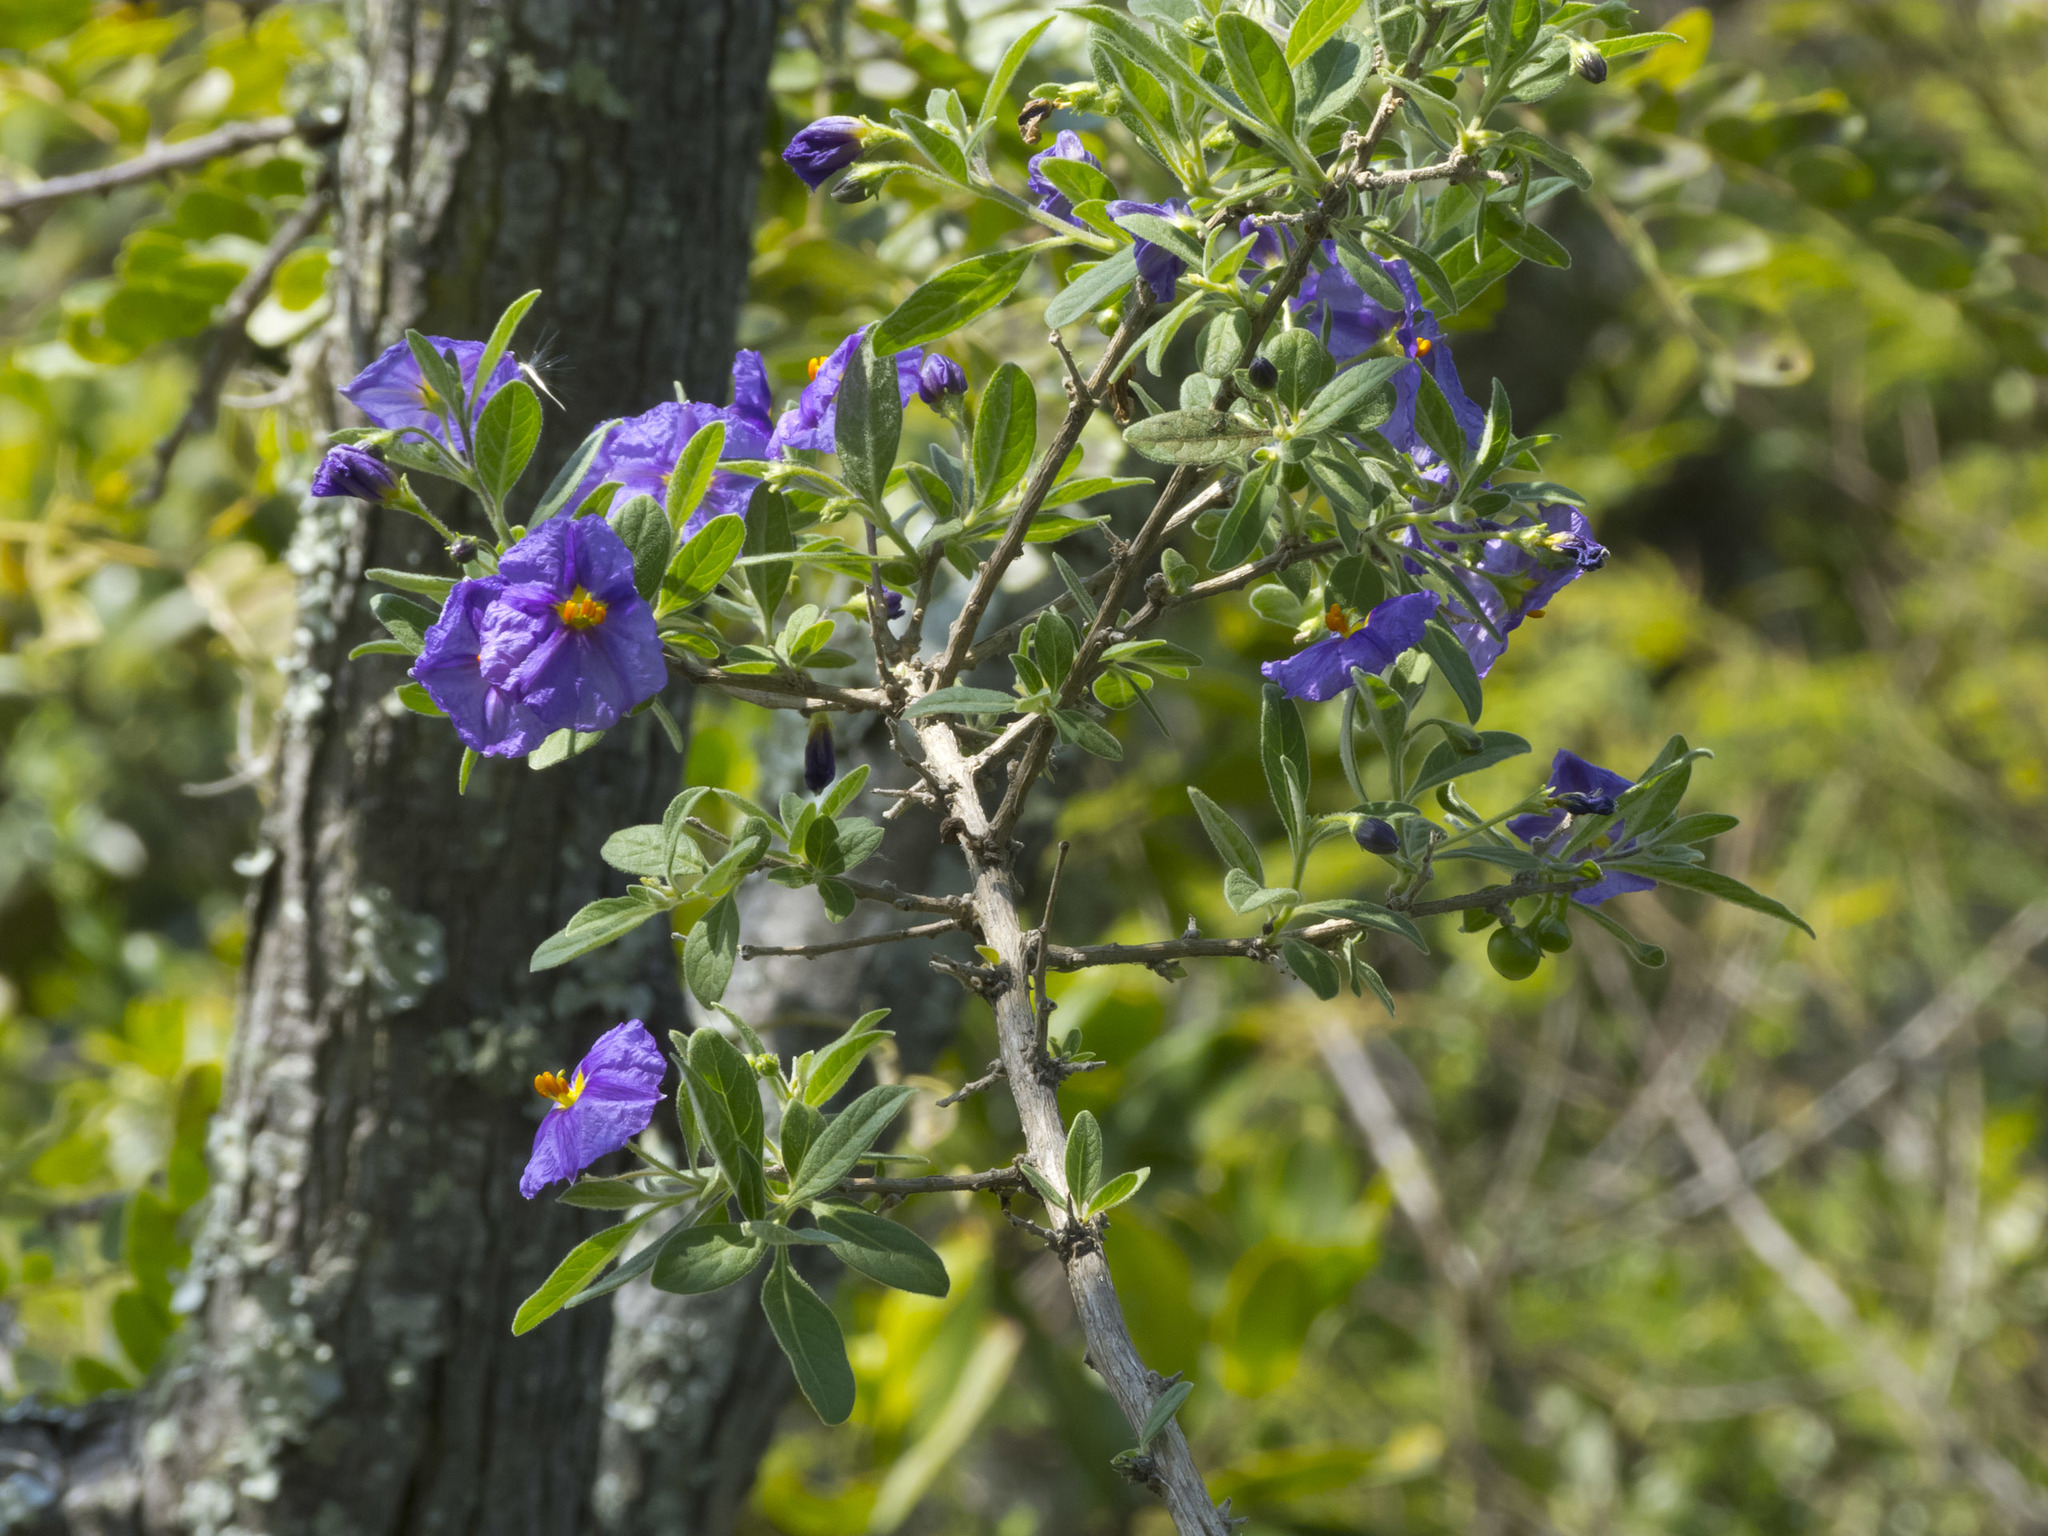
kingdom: Plantae
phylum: Tracheophyta
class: Magnoliopsida
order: Solanales
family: Solanaceae
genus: Lycianthes
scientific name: Lycianthes lycioides
